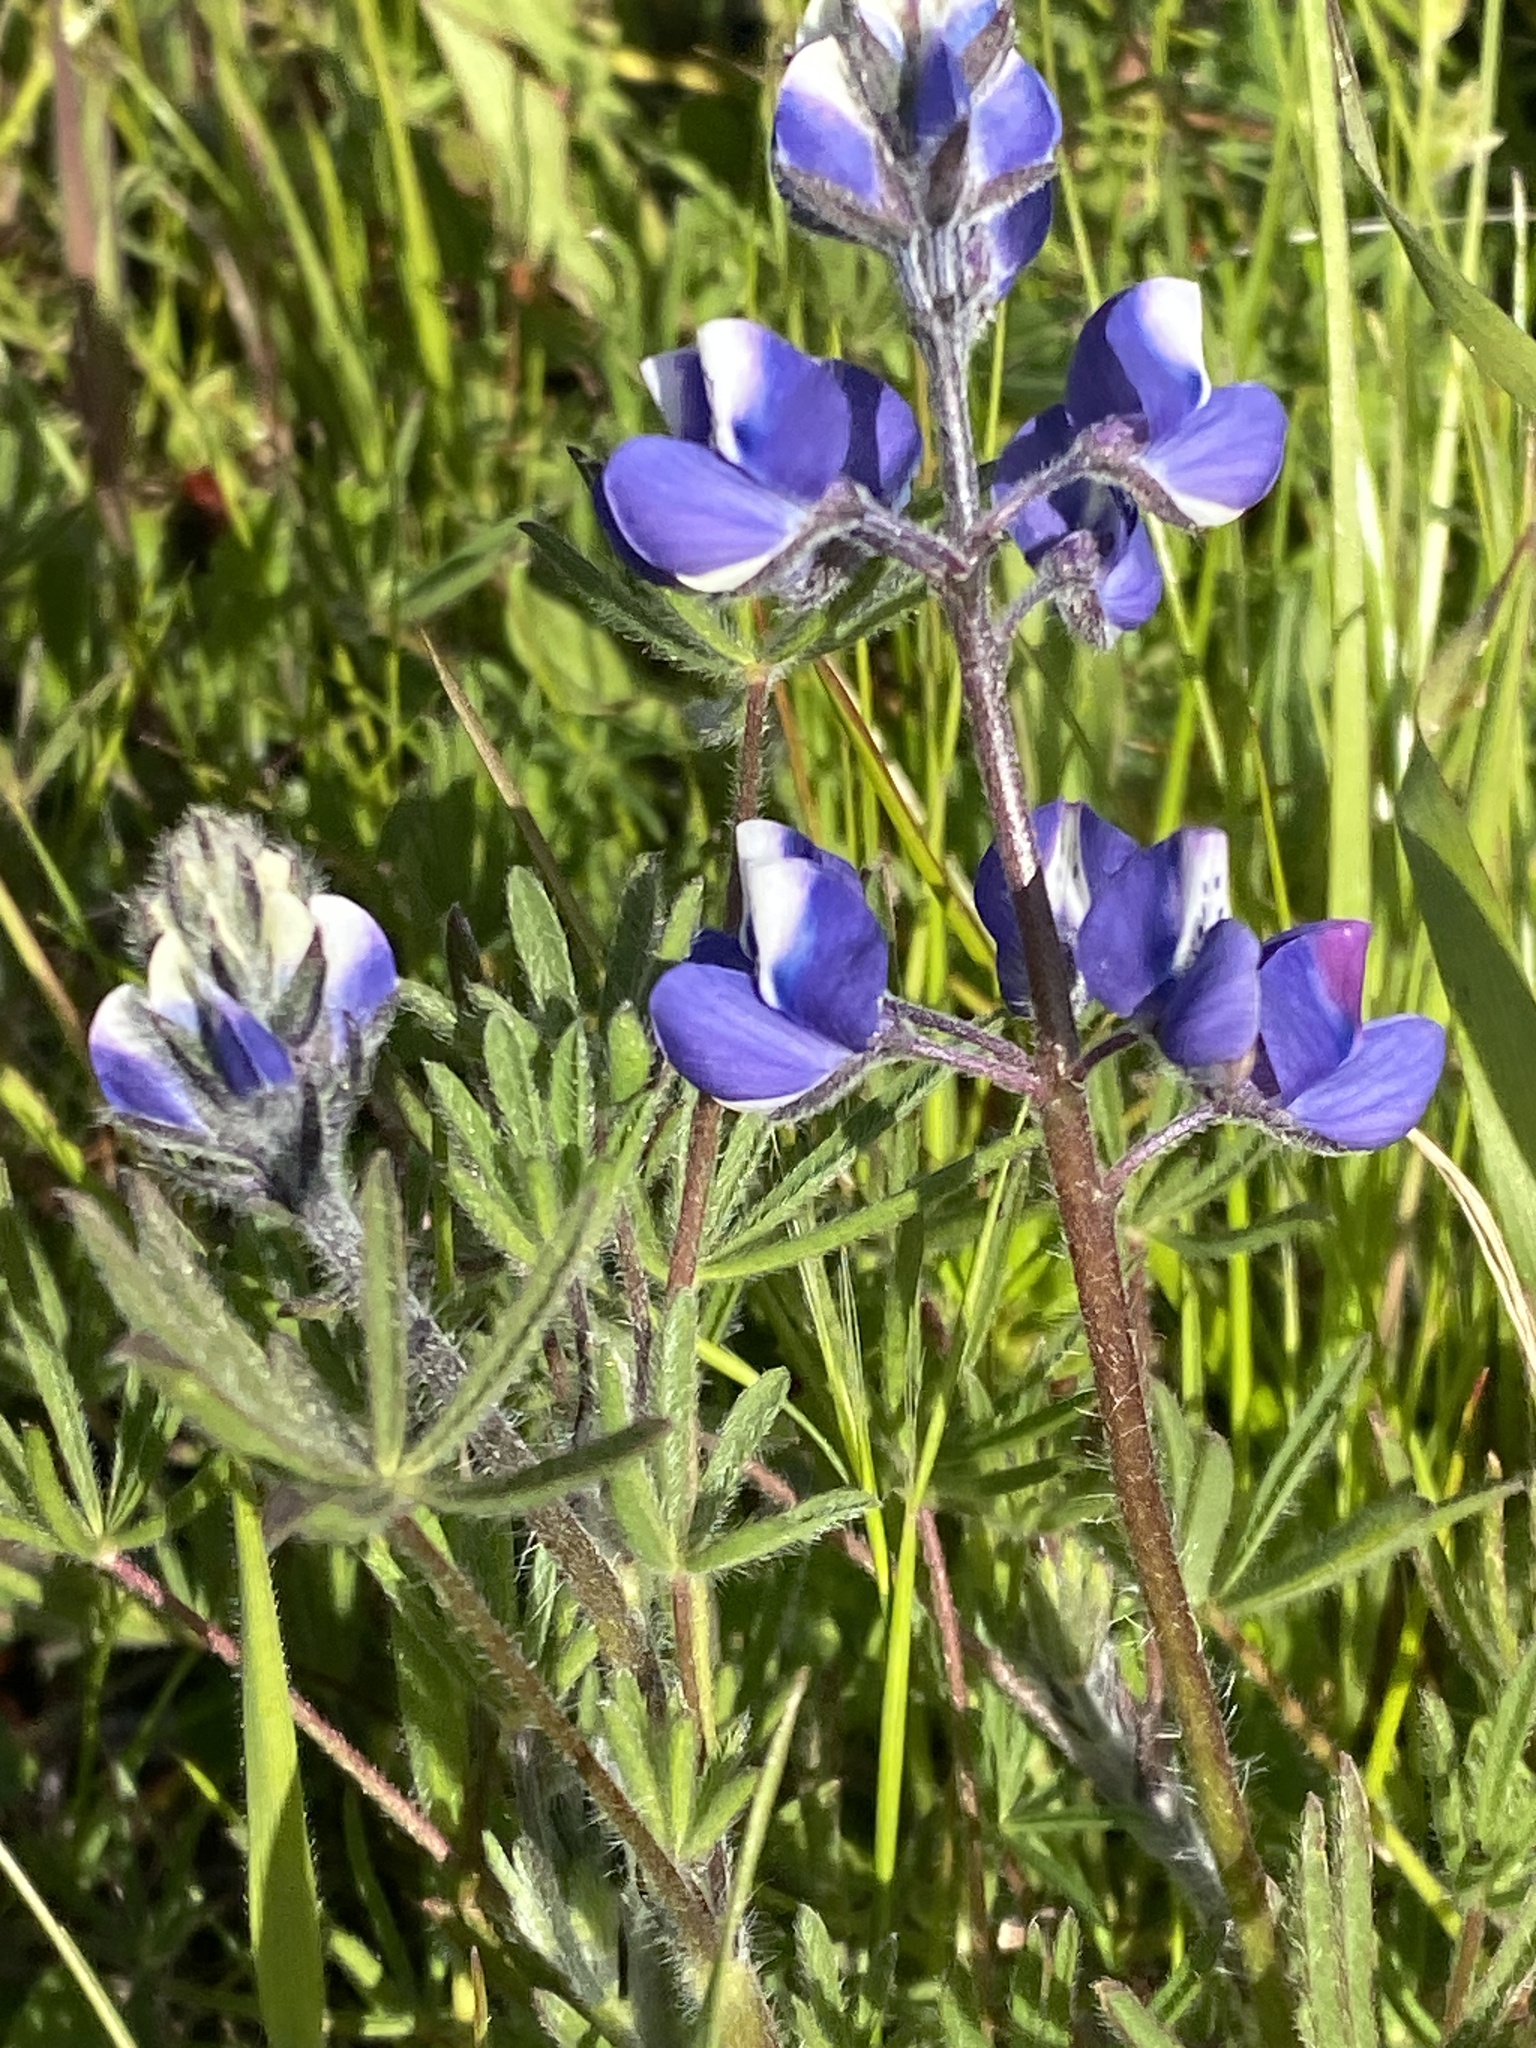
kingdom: Plantae
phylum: Tracheophyta
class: Magnoliopsida
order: Fabales
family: Fabaceae
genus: Lupinus
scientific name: Lupinus bicolor
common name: Miniature lupine
